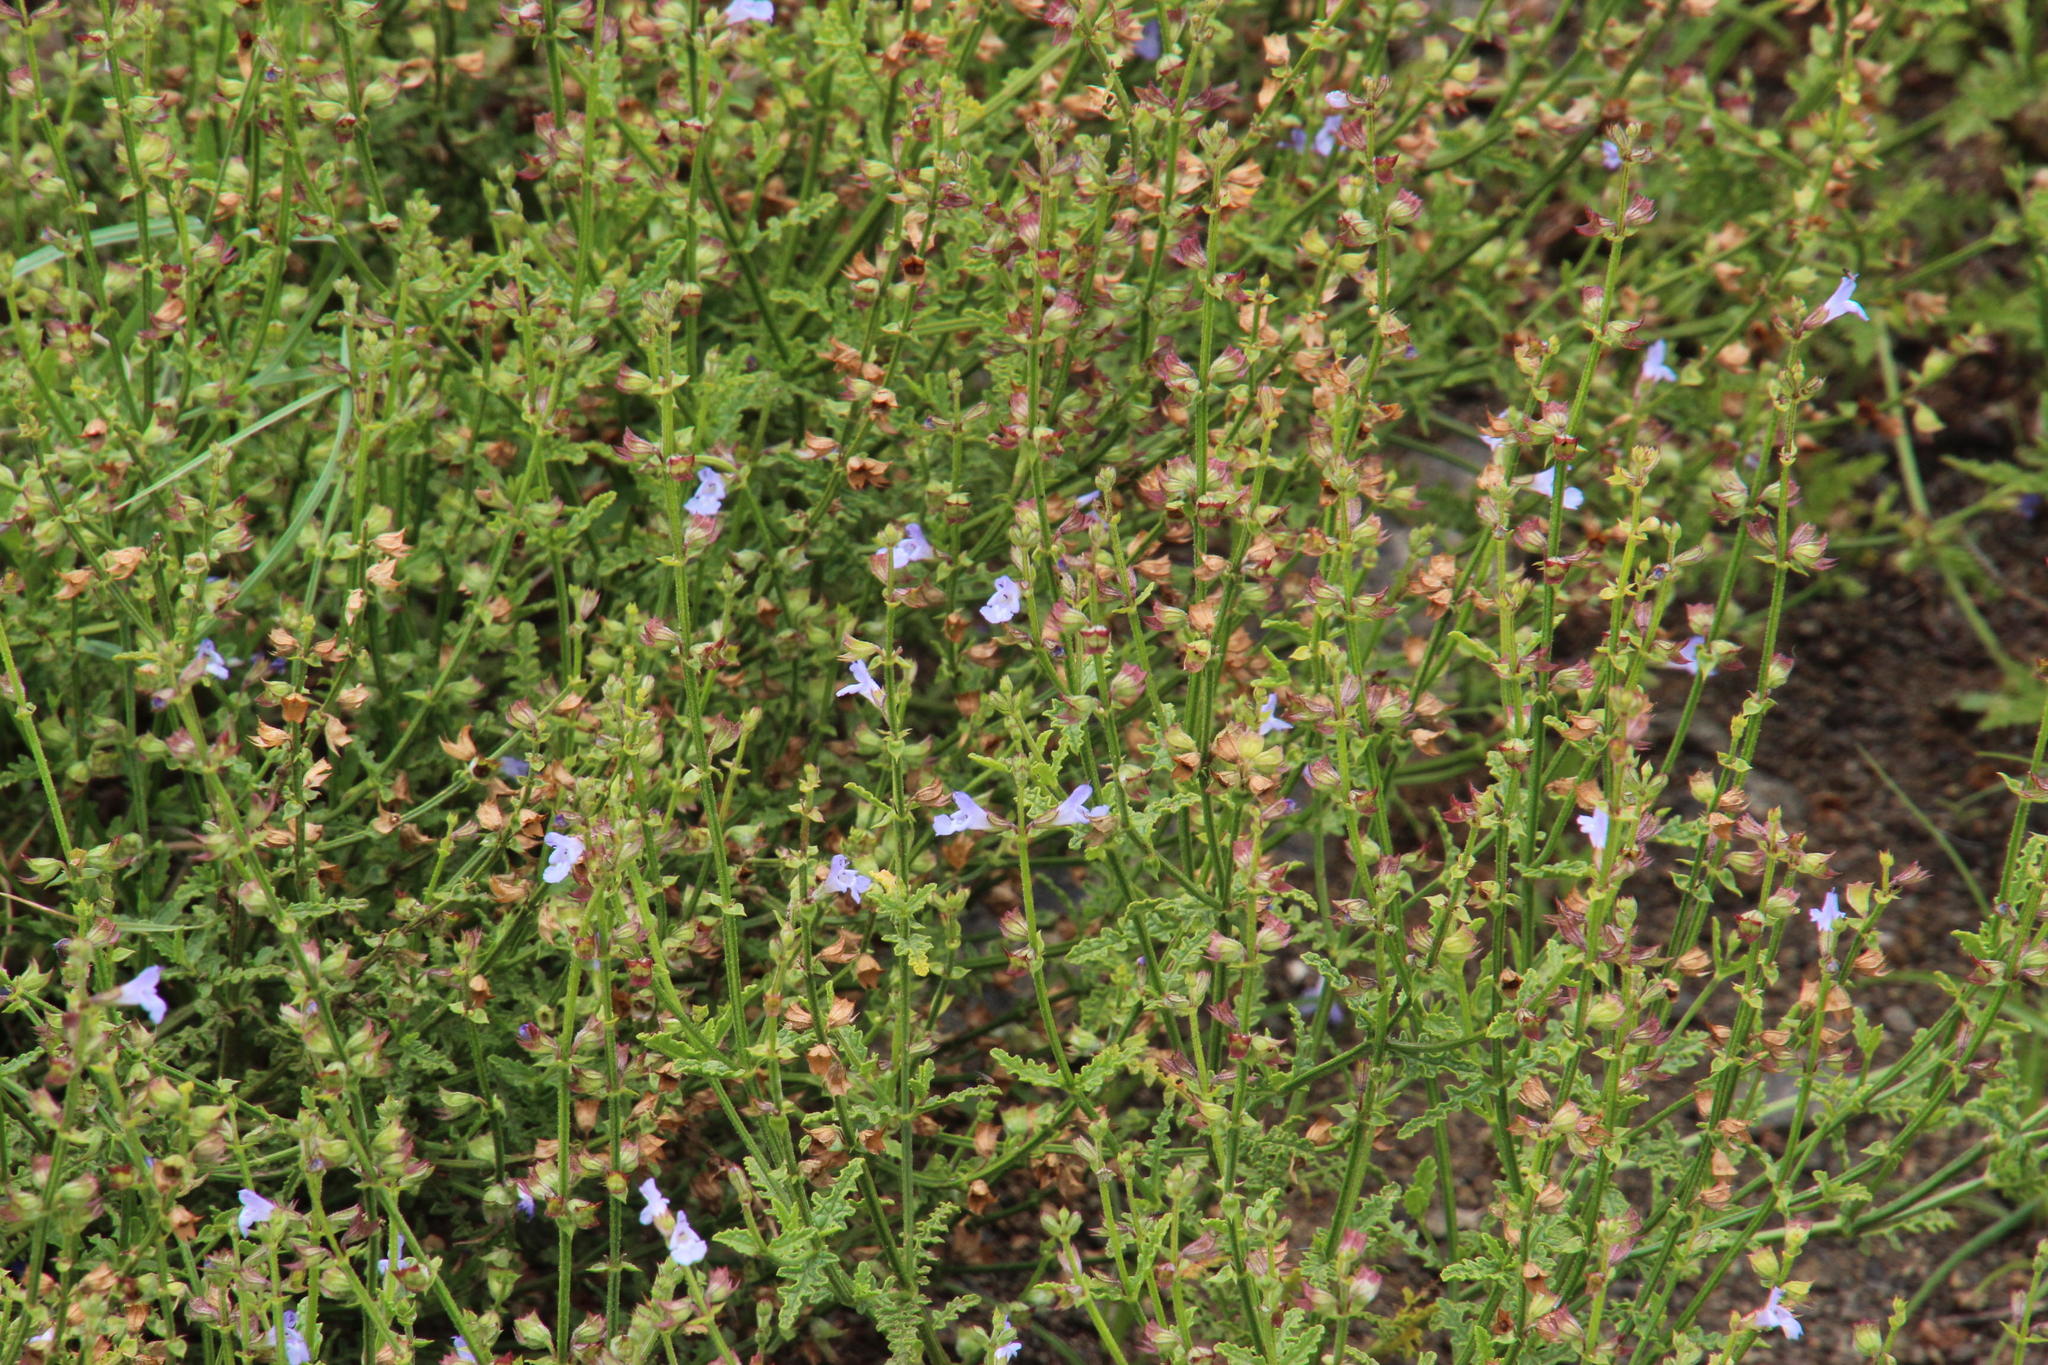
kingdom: Plantae
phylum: Tracheophyta
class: Magnoliopsida
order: Lamiales
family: Lamiaceae
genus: Salvia
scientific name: Salvia stenophylla
